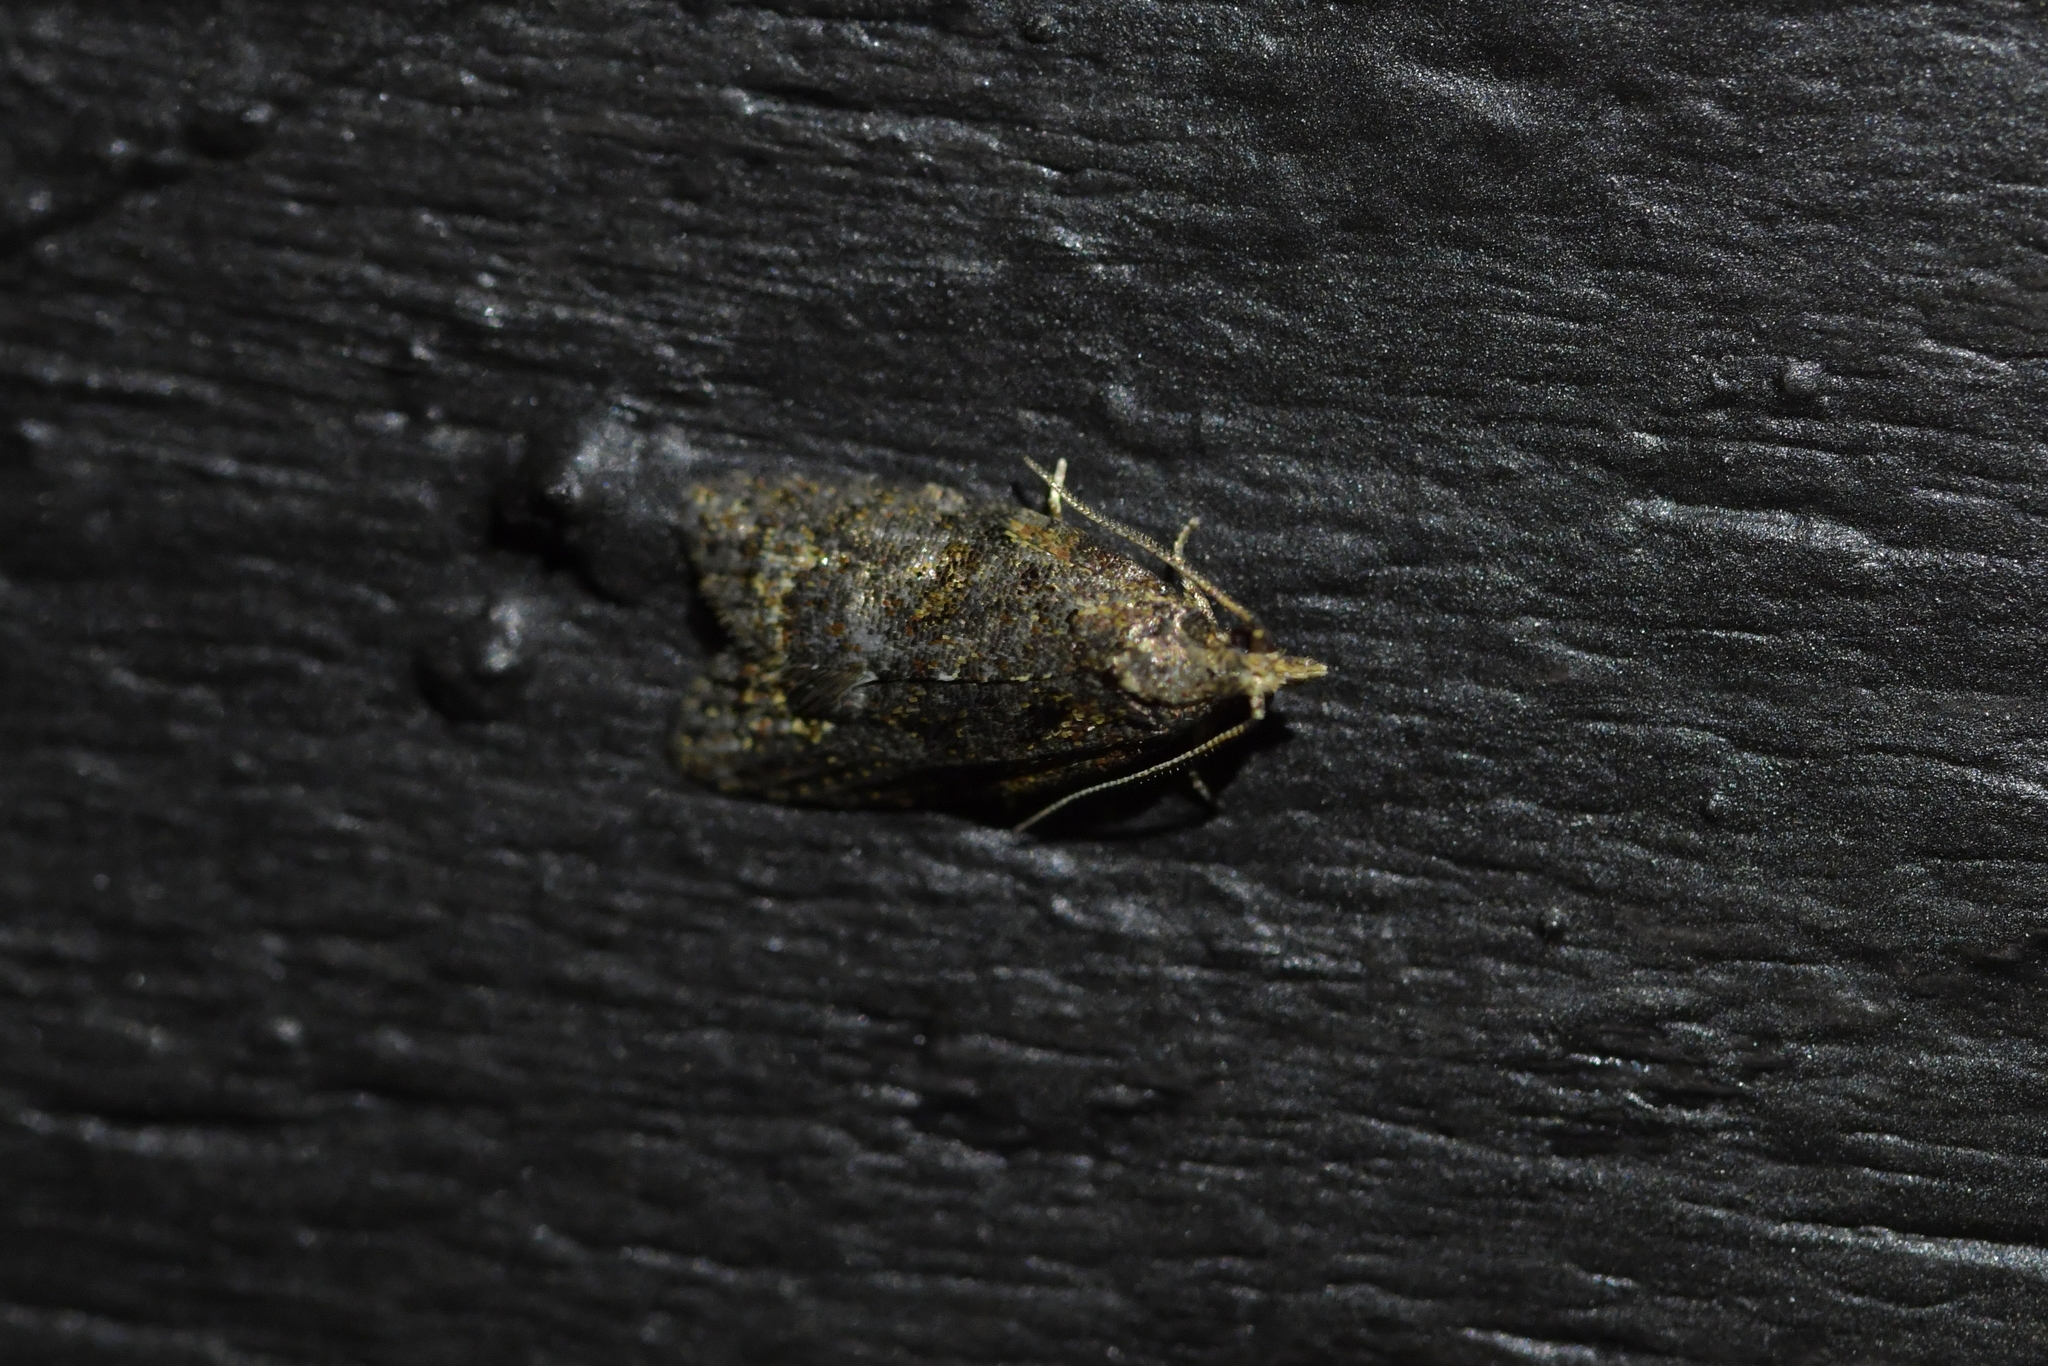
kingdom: Animalia
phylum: Arthropoda
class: Insecta
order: Lepidoptera
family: Tortricidae
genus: Capua
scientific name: Capua intractana
